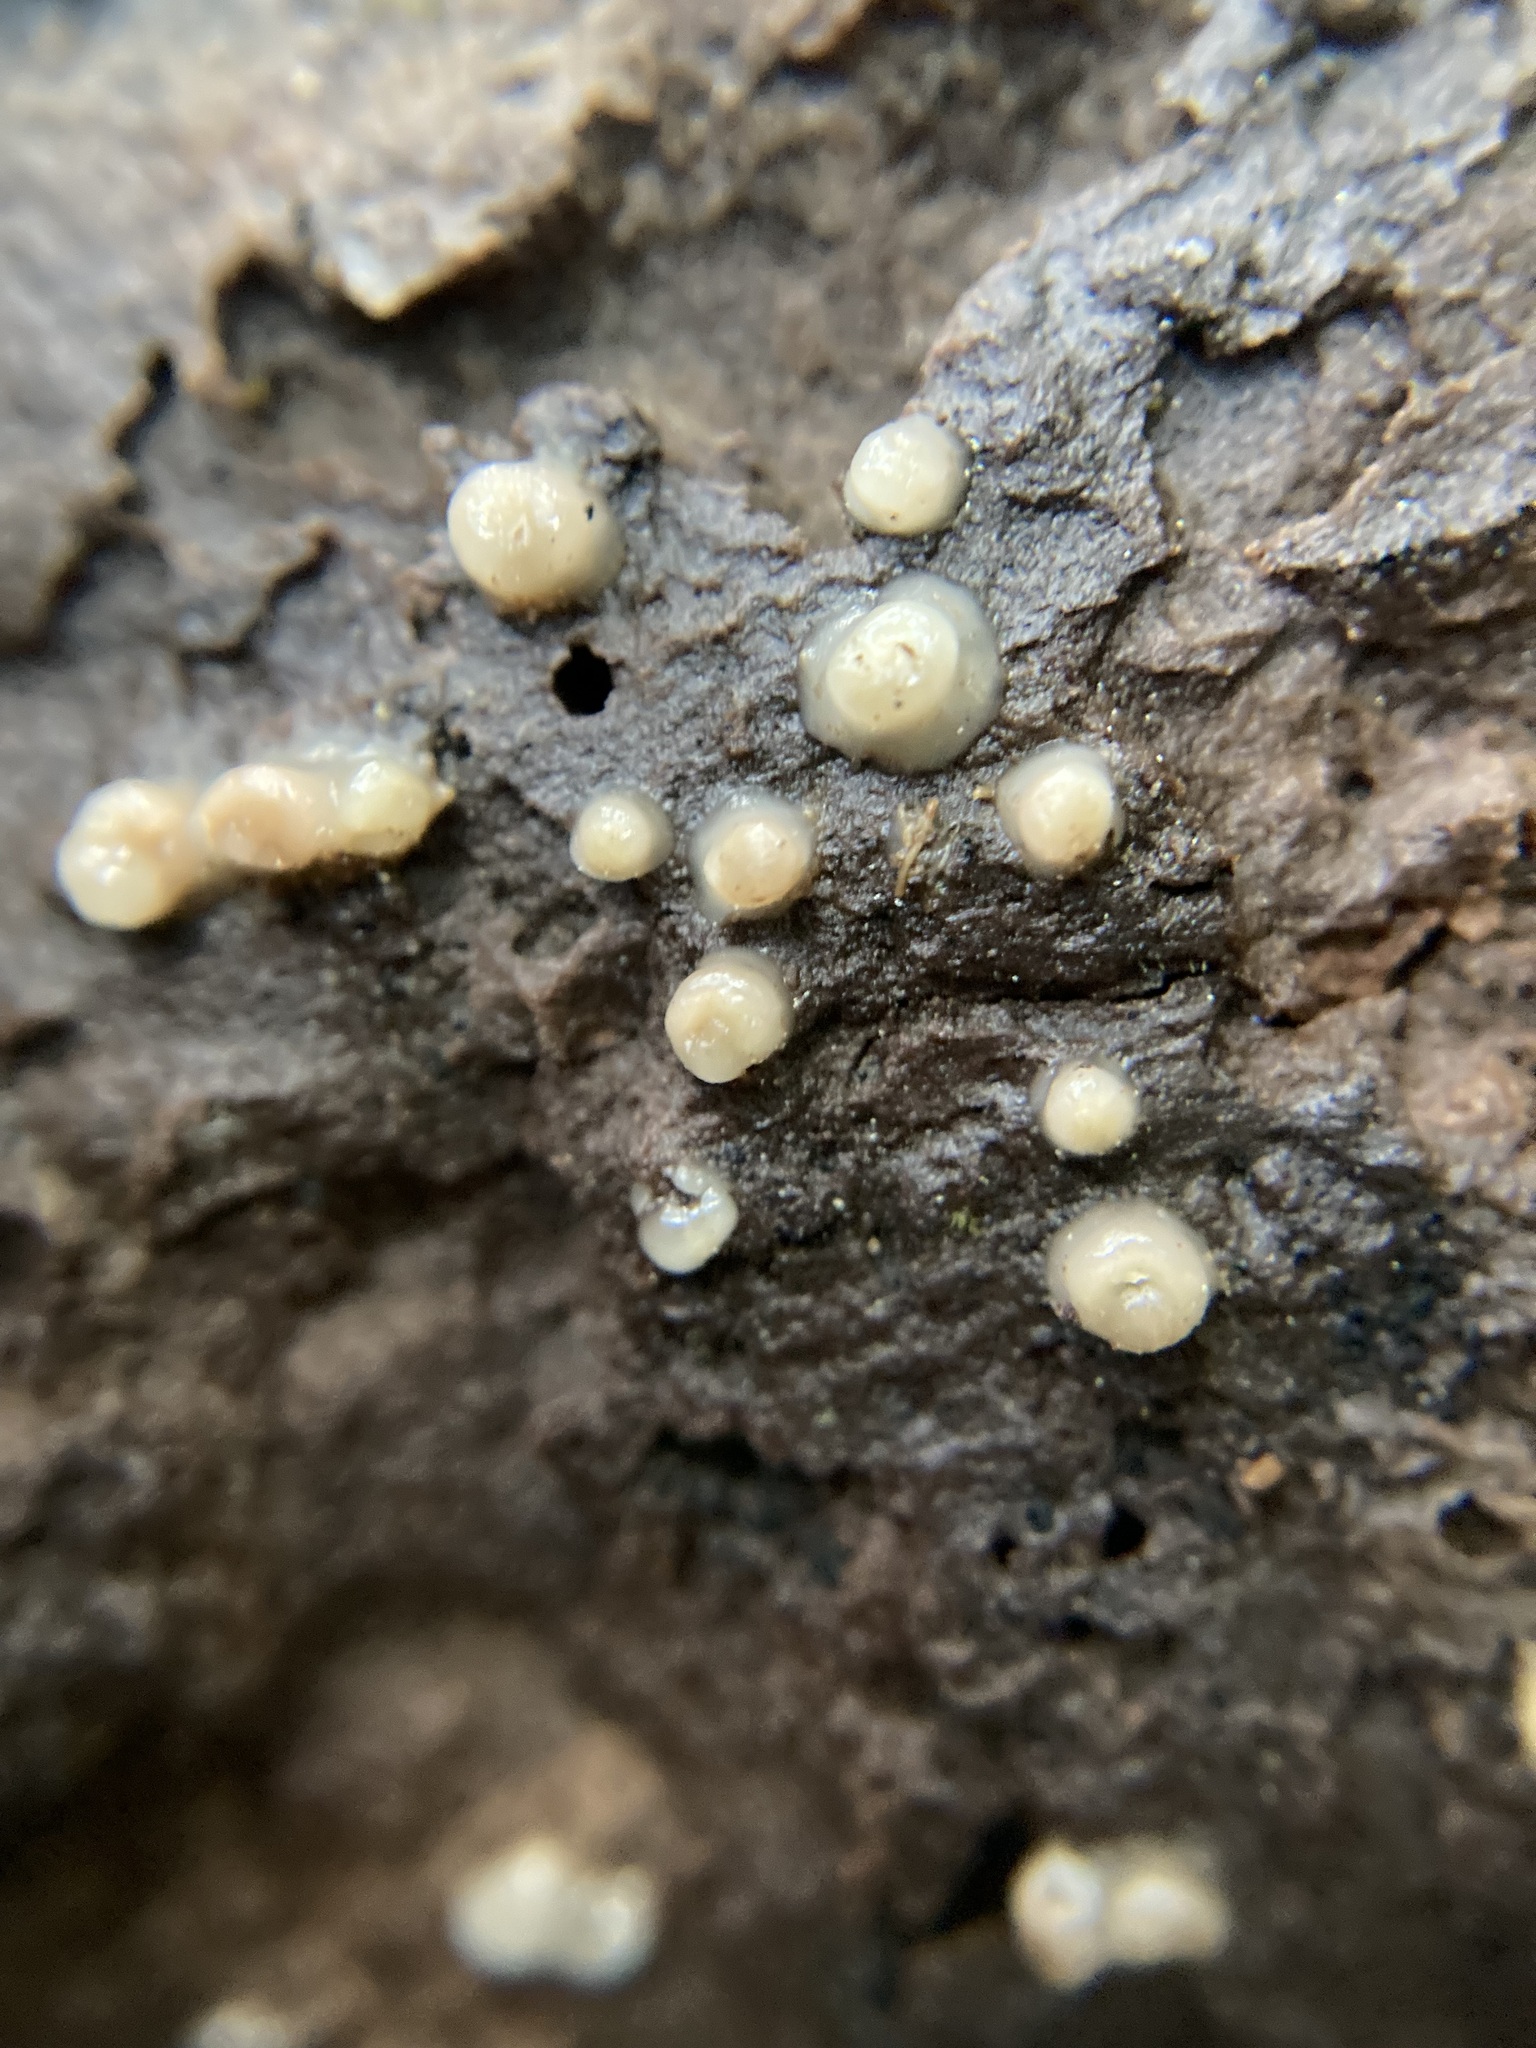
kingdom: Fungi
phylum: Basidiomycota
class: Atractiellomycetes
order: Atractiellales
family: Phleogenaceae
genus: Helicogloea
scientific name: Helicogloea compressa
